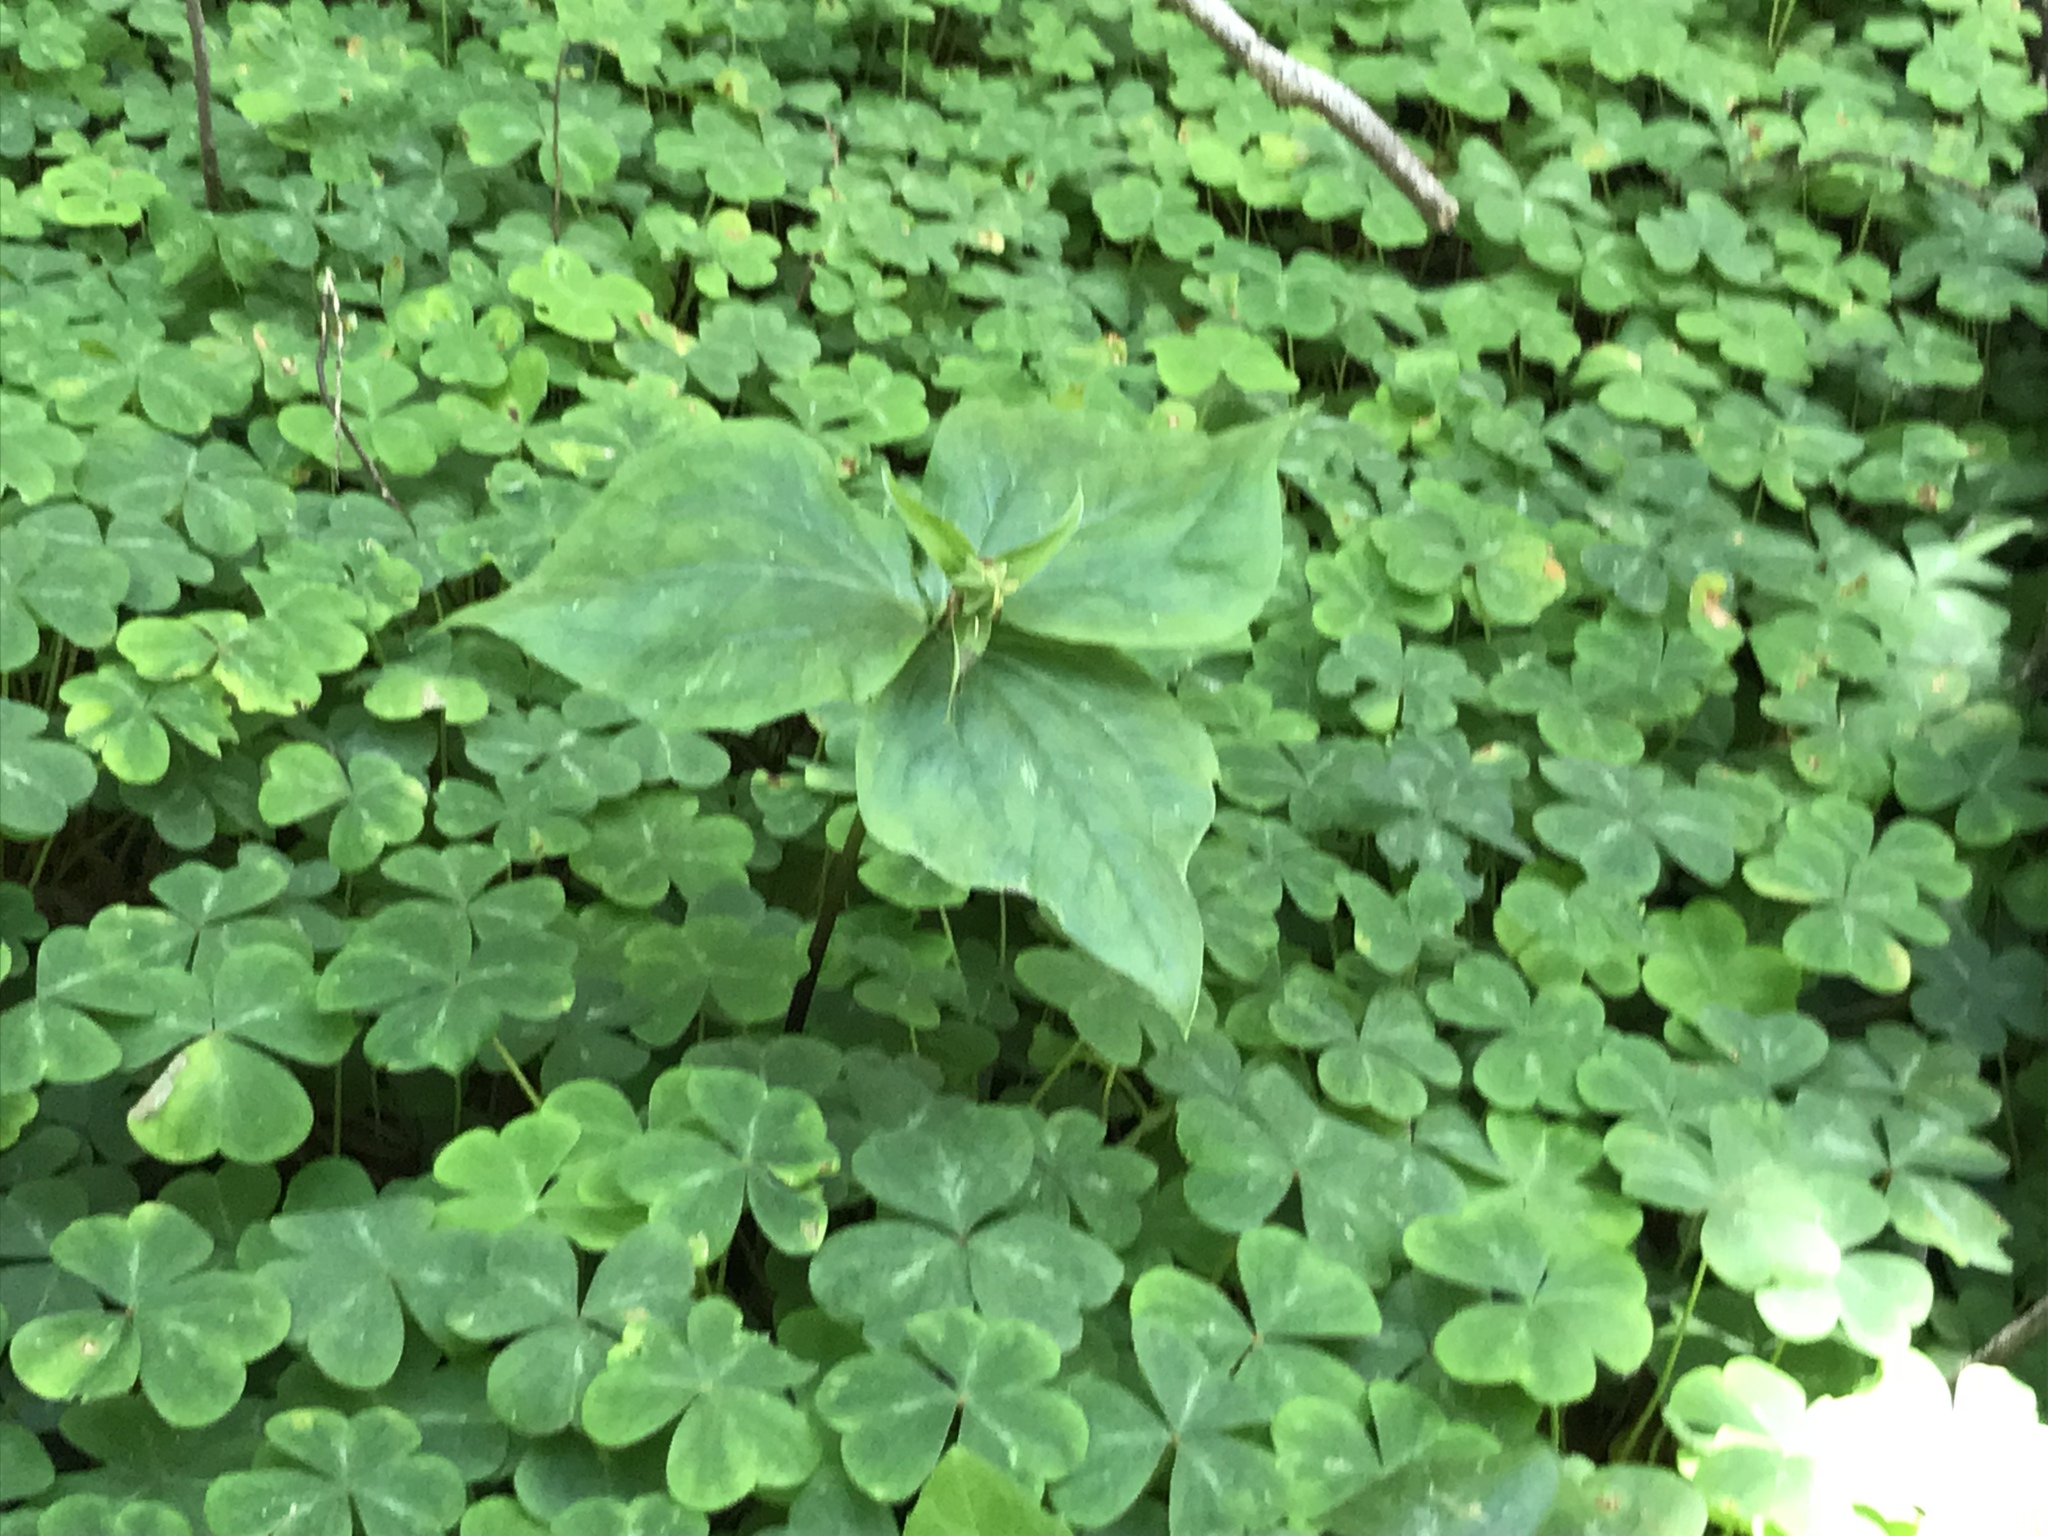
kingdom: Plantae
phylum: Tracheophyta
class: Liliopsida
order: Liliales
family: Melanthiaceae
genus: Trillium
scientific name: Trillium ovatum
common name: Pacific trillium
